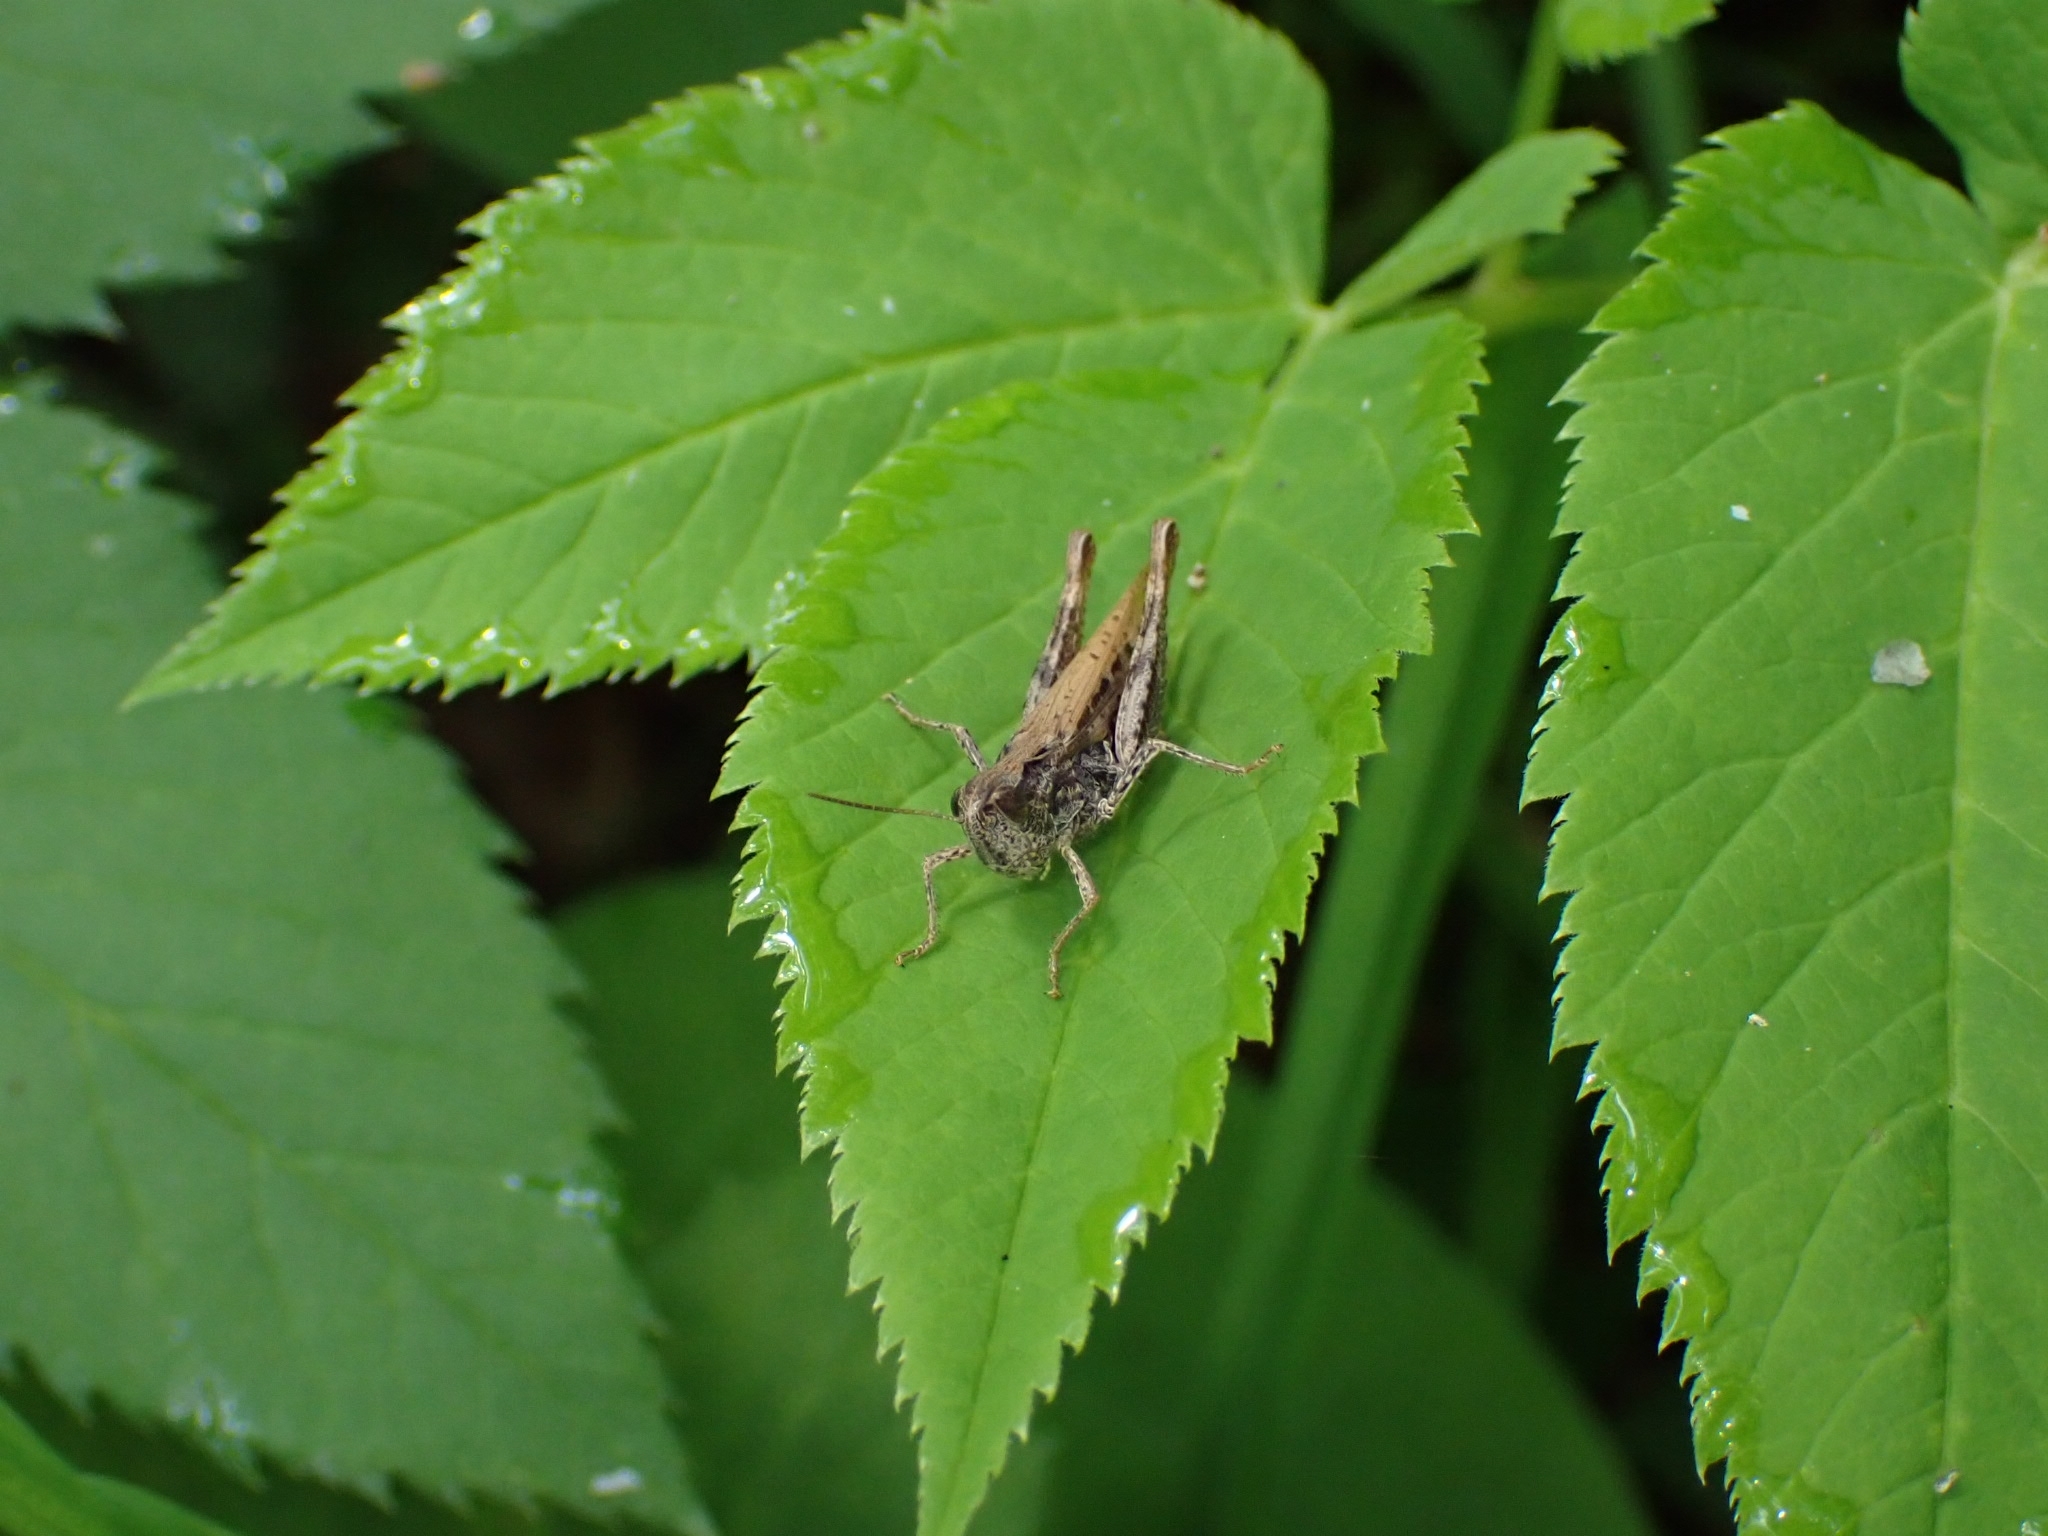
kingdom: Animalia
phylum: Arthropoda
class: Insecta
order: Orthoptera
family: Acrididae
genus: Chorthippus
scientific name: Chorthippus apricarius
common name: Upland field grasshopper
